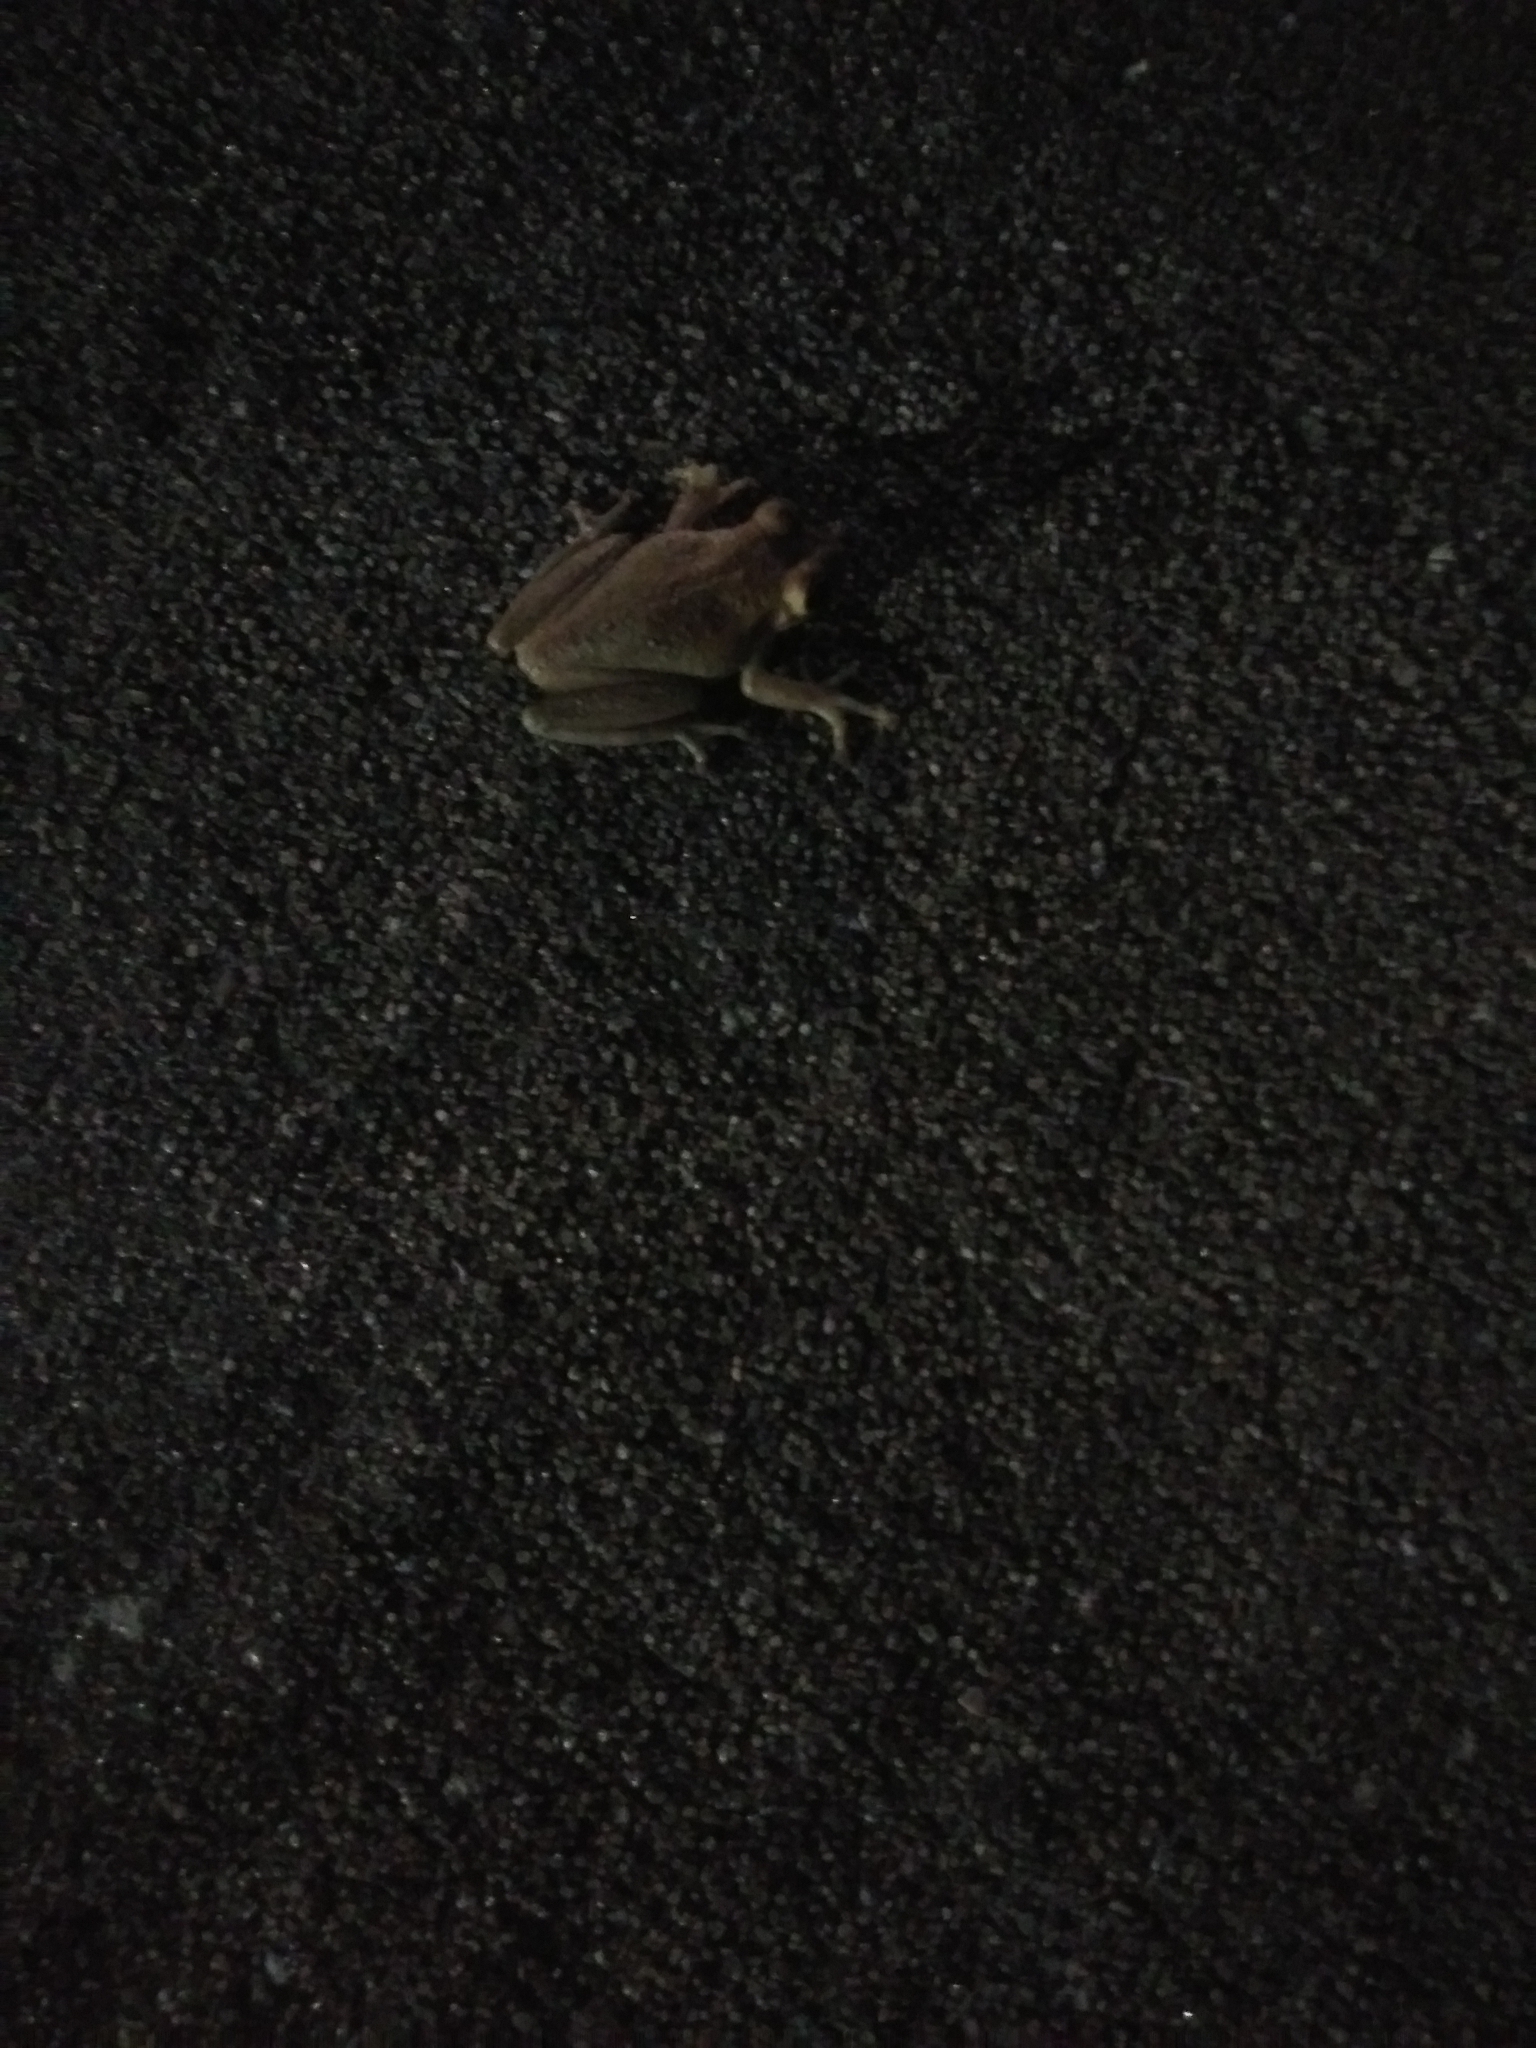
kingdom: Animalia
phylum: Chordata
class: Amphibia
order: Anura
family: Hylidae
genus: Osteopilus
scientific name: Osteopilus septentrionalis
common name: Cuban treefrog
